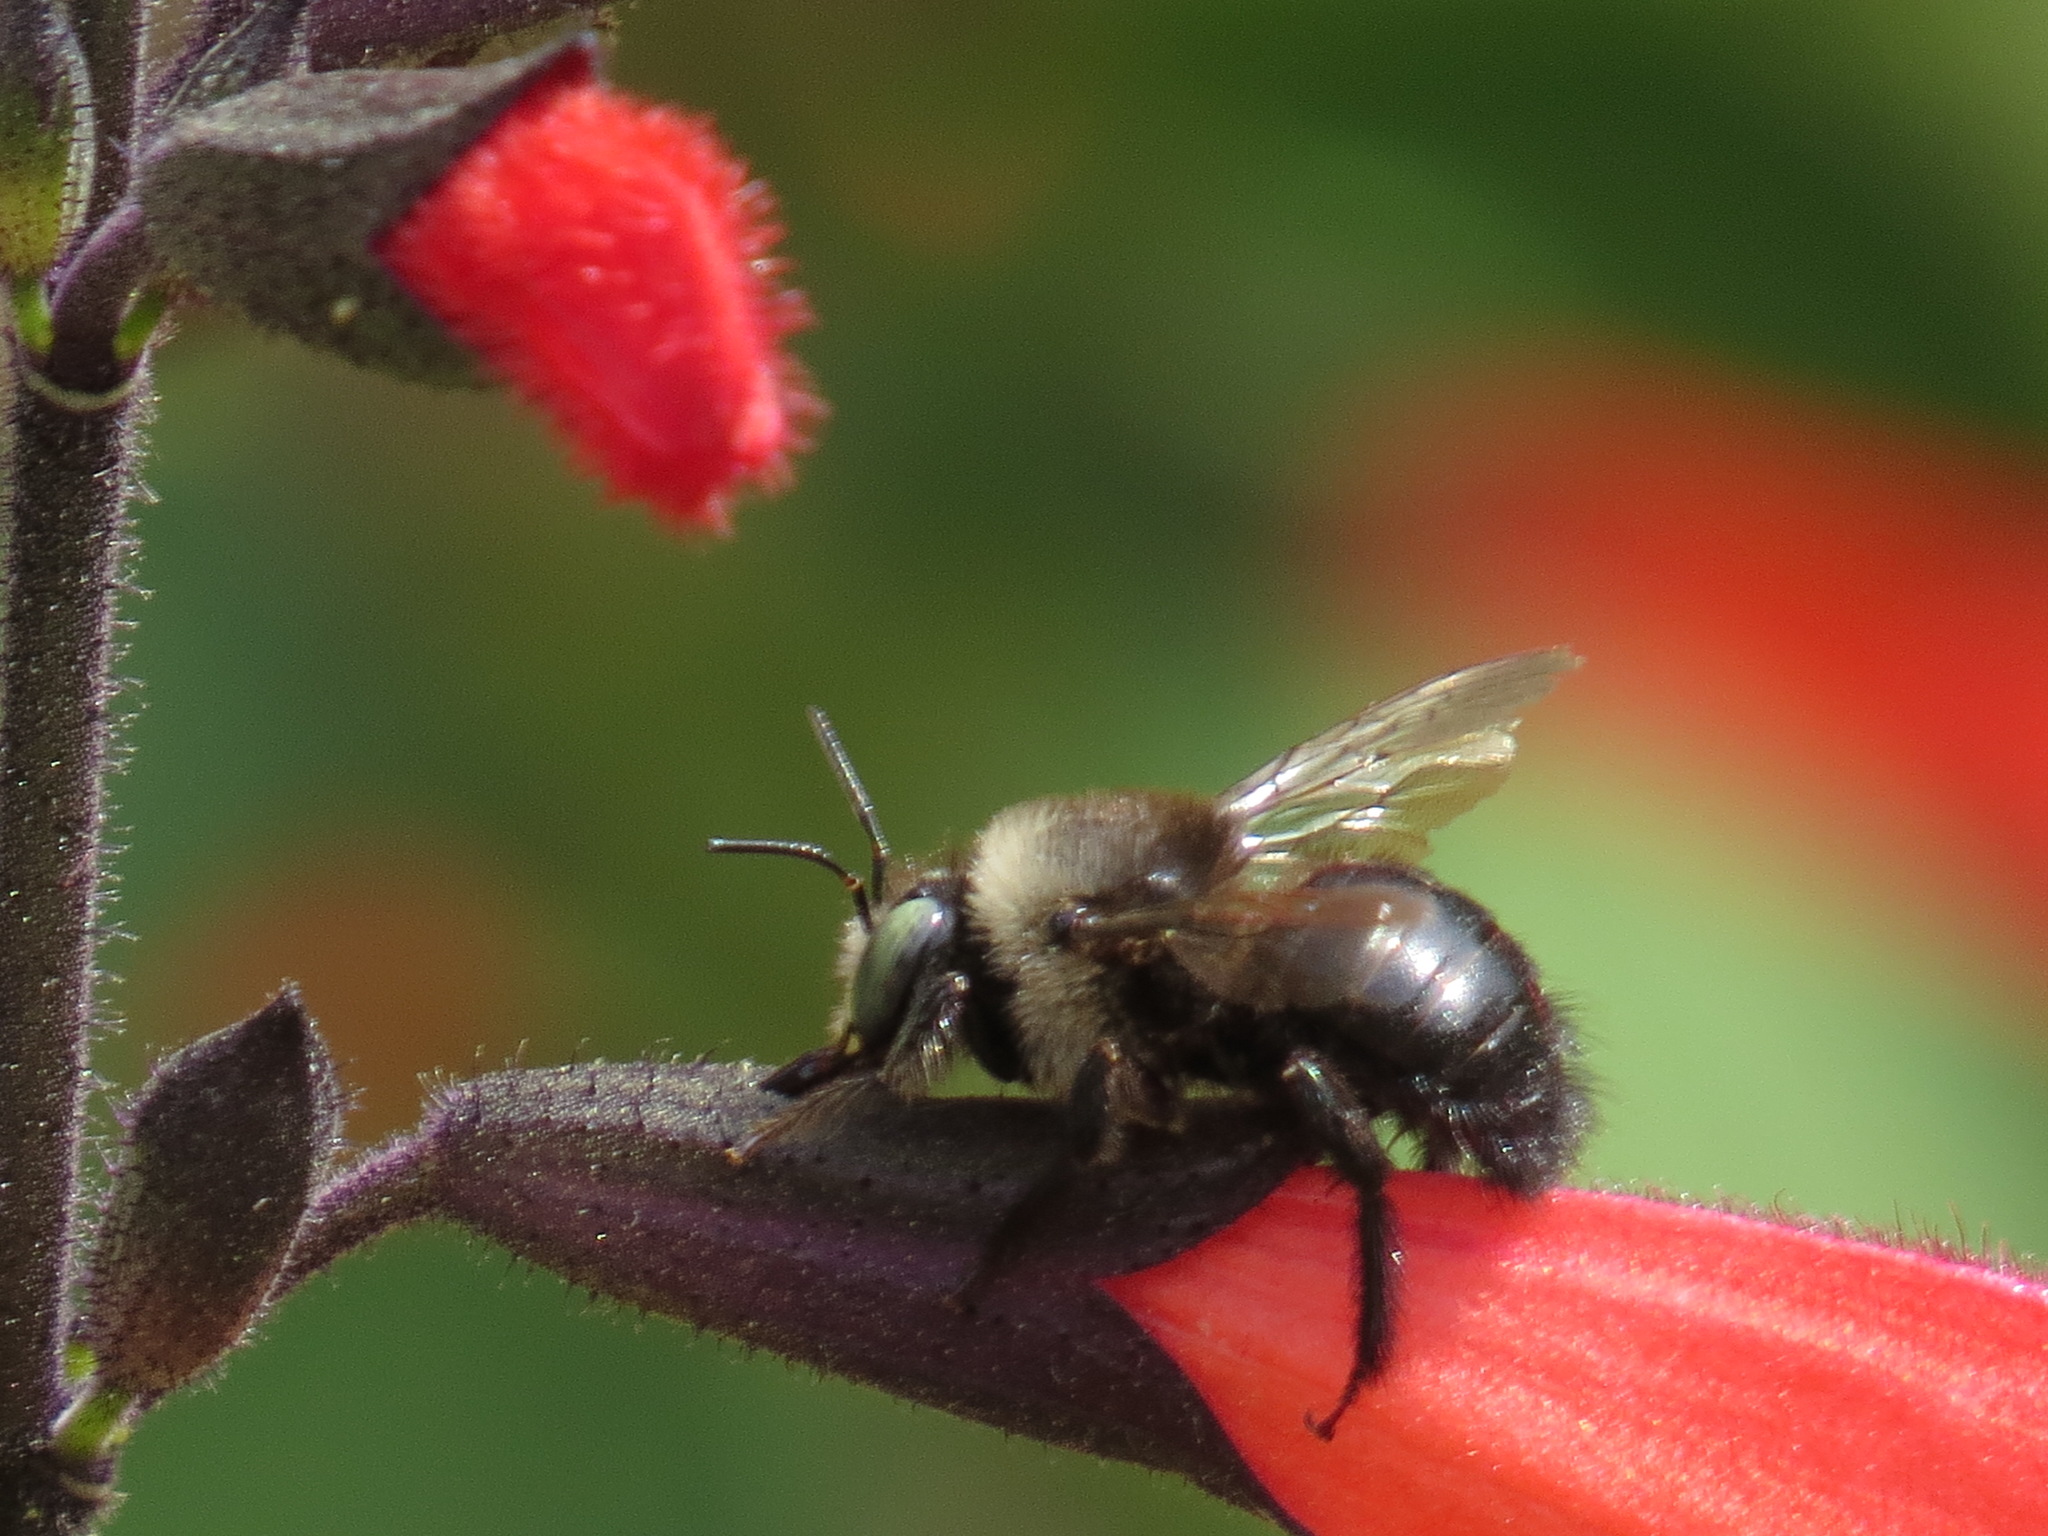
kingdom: Animalia
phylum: Arthropoda
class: Insecta
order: Hymenoptera
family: Apidae
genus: Xylocopa
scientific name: Xylocopa tabaniformis
